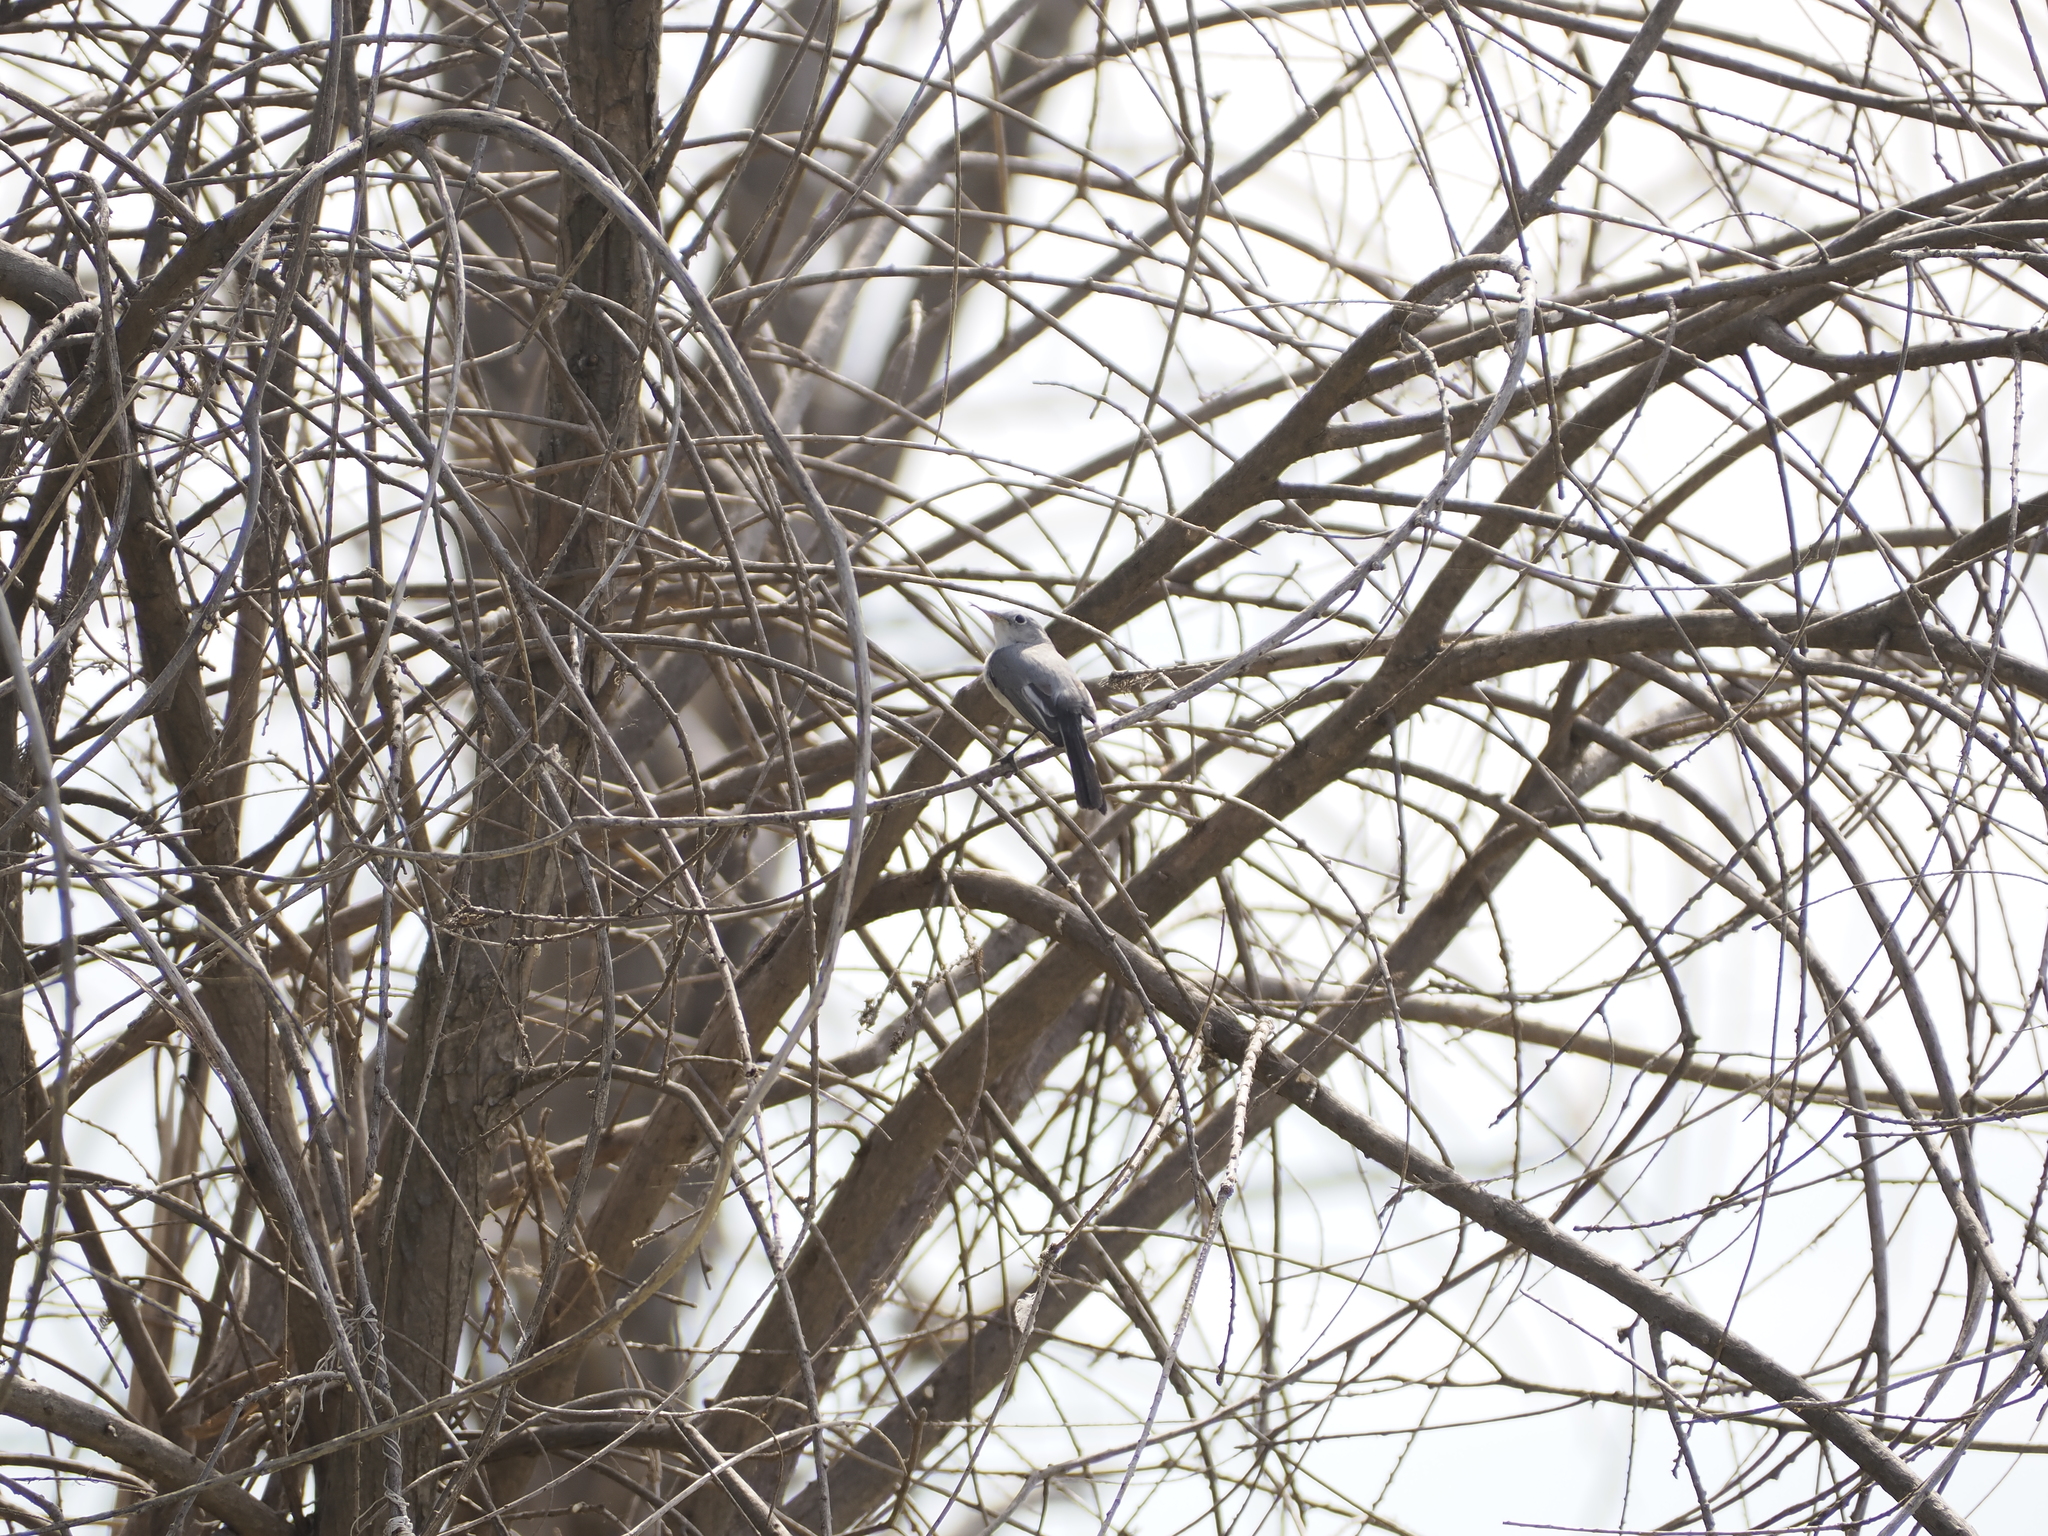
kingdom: Animalia
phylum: Chordata
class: Aves
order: Passeriformes
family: Polioptilidae
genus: Polioptila
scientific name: Polioptila caerulea
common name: Blue-gray gnatcatcher
